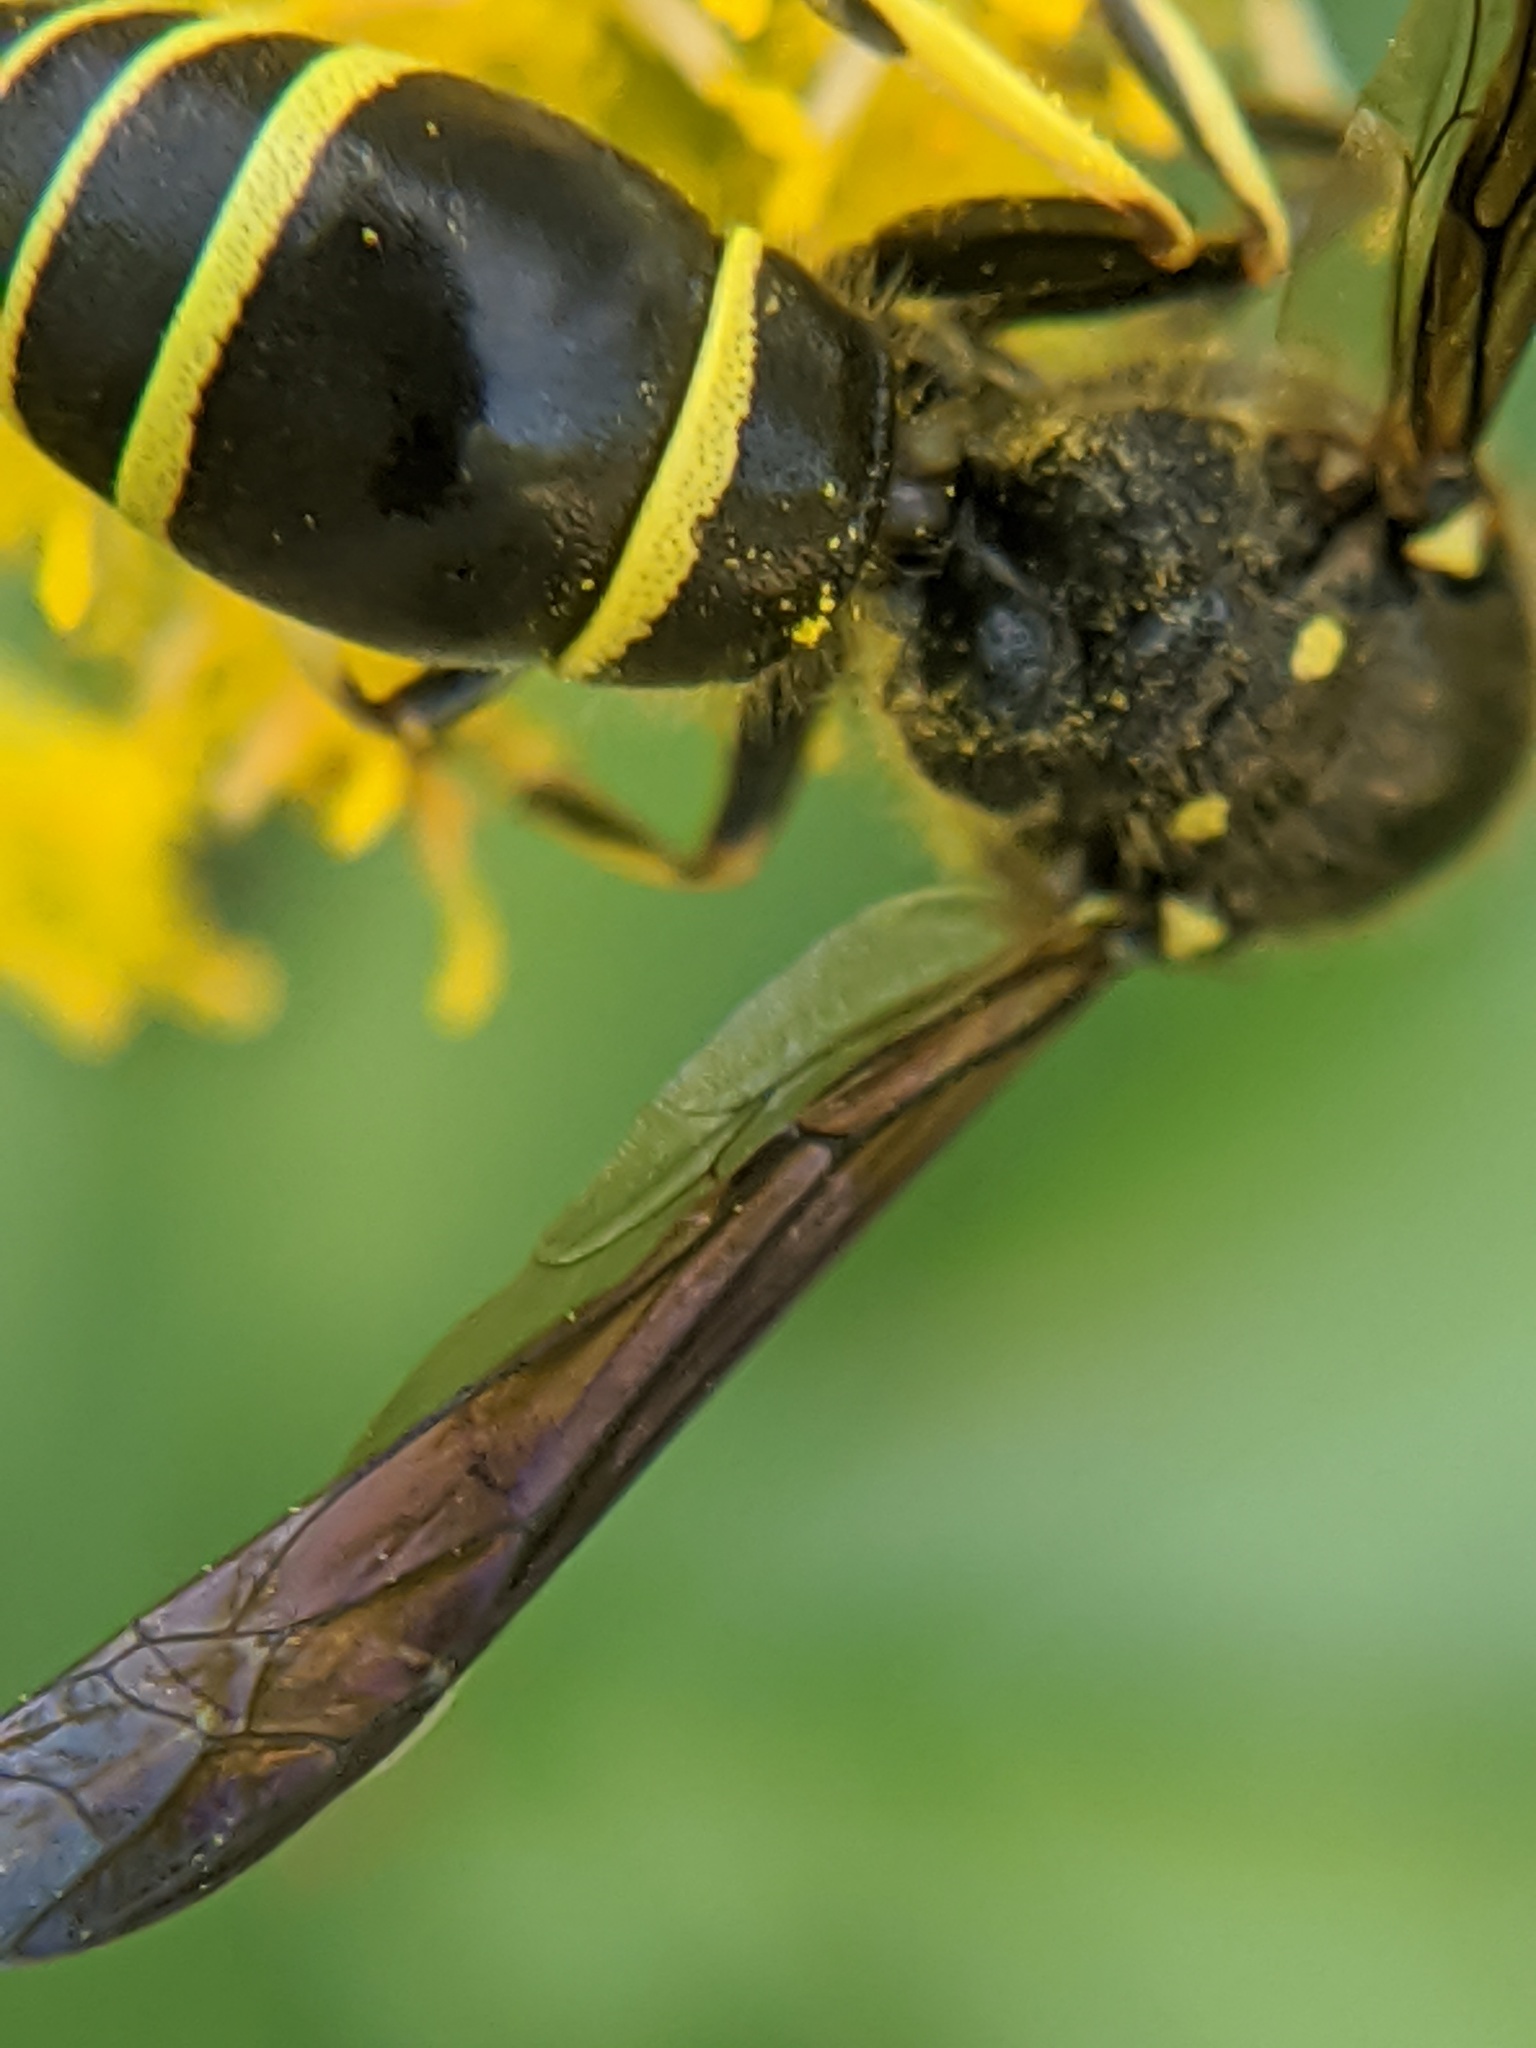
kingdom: Animalia
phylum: Arthropoda
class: Insecta
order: Hymenoptera
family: Vespidae
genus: Ancistrocerus
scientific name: Ancistrocerus
